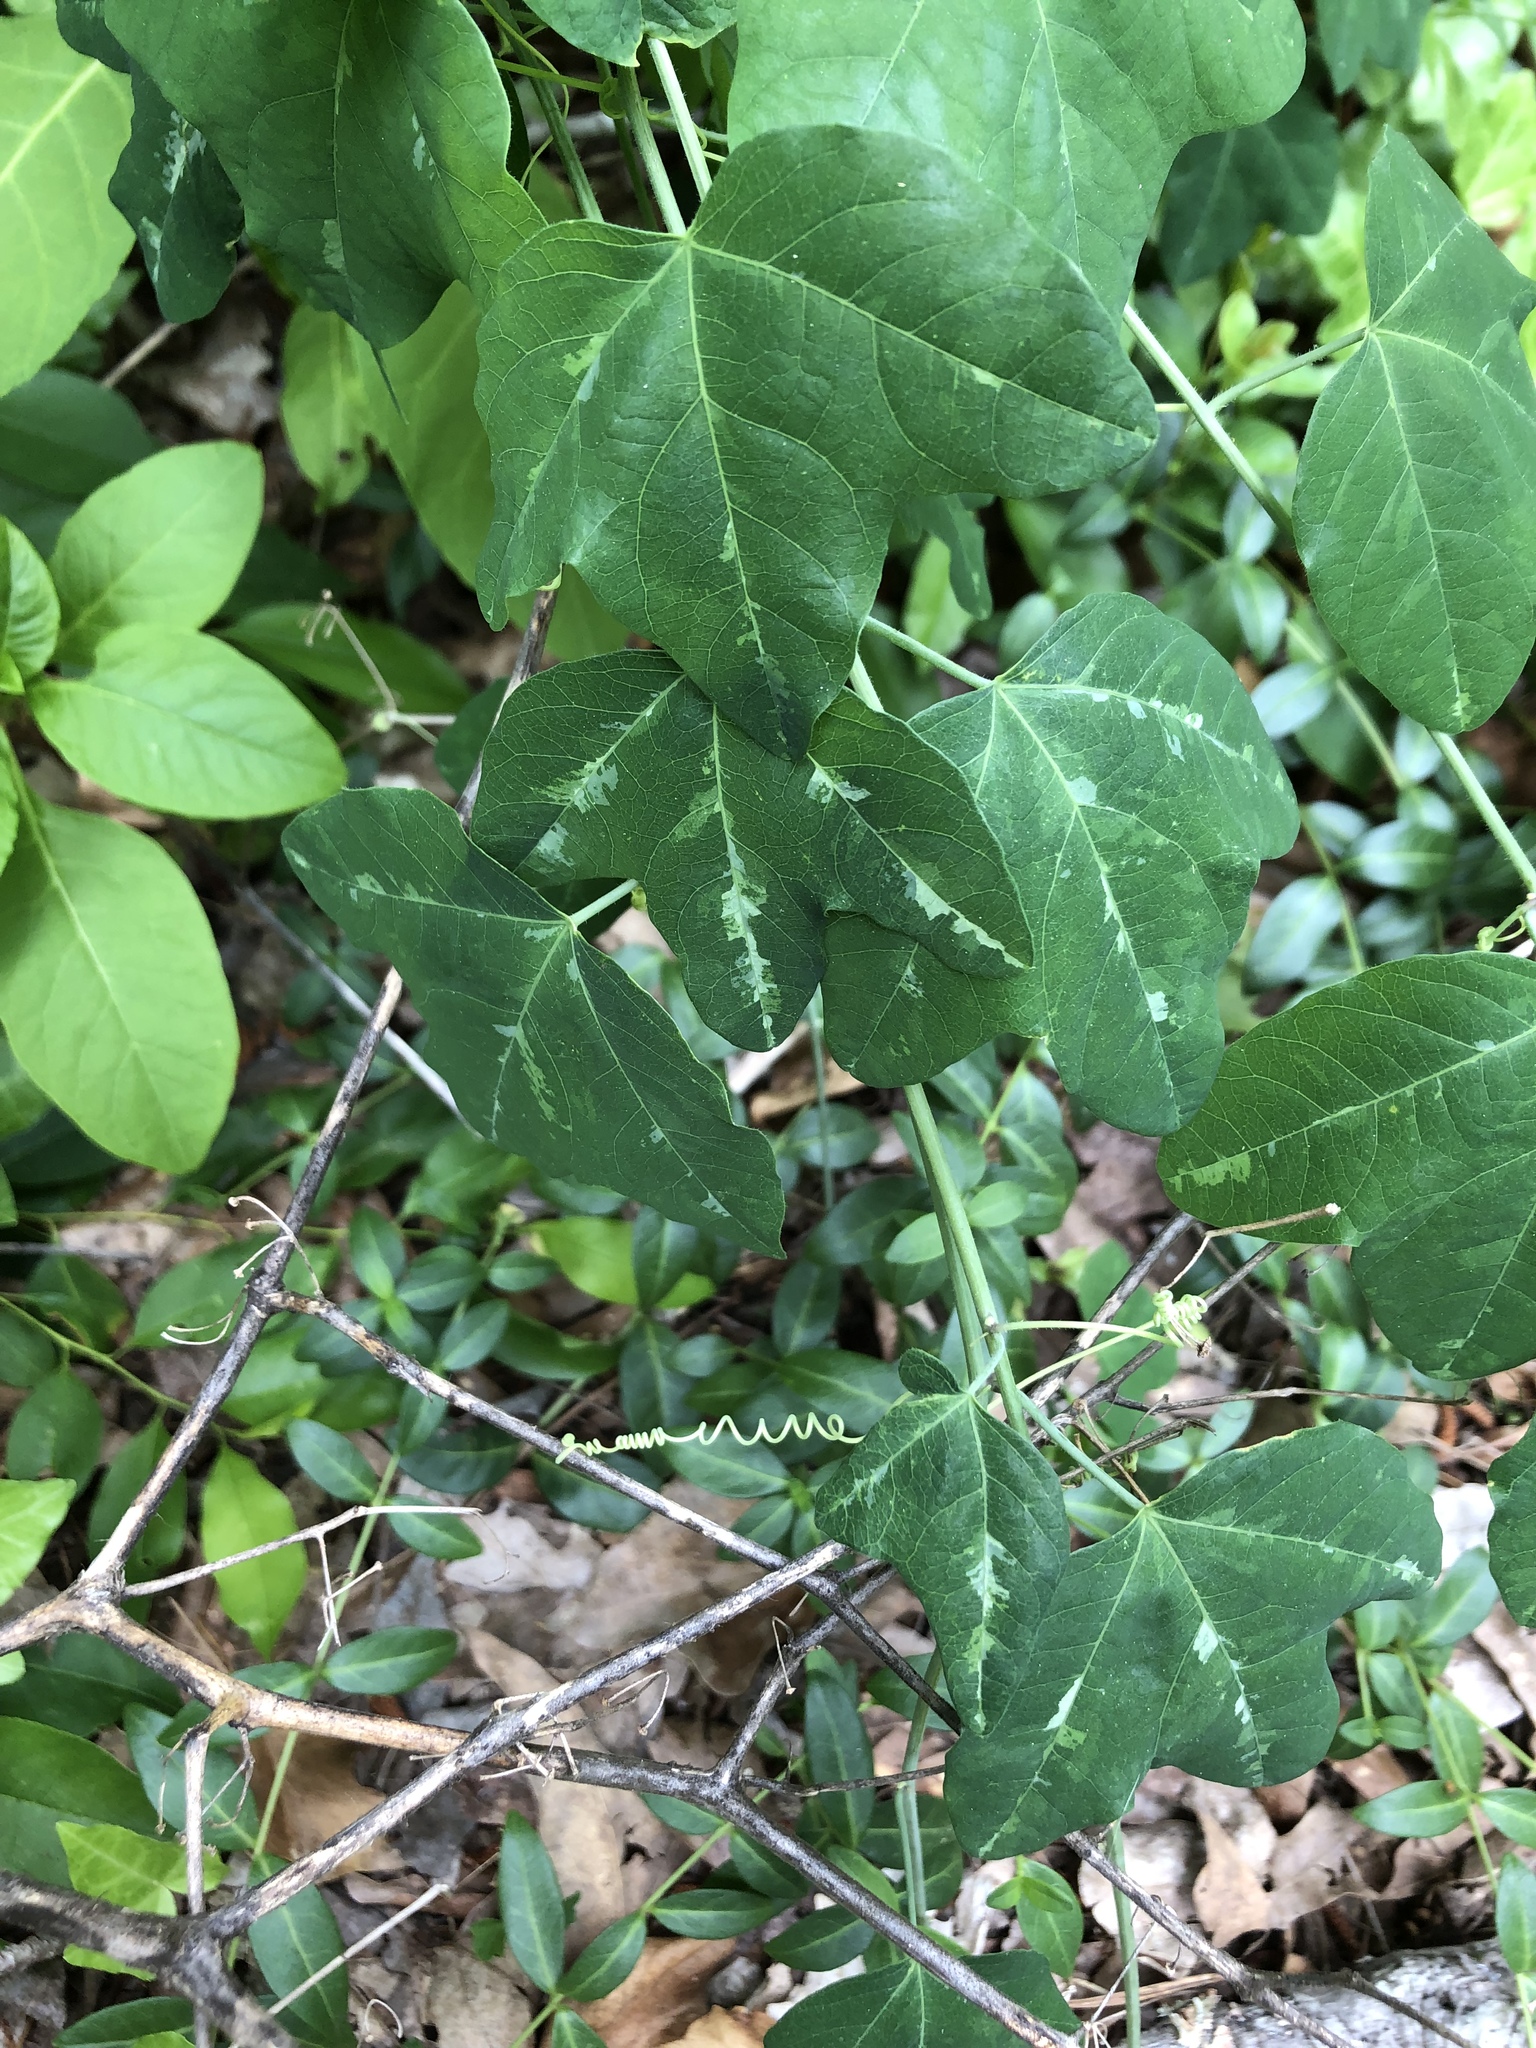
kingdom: Plantae
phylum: Tracheophyta
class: Magnoliopsida
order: Malpighiales
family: Passifloraceae
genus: Passiflora
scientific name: Passiflora lutea
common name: Yellow passionflower
